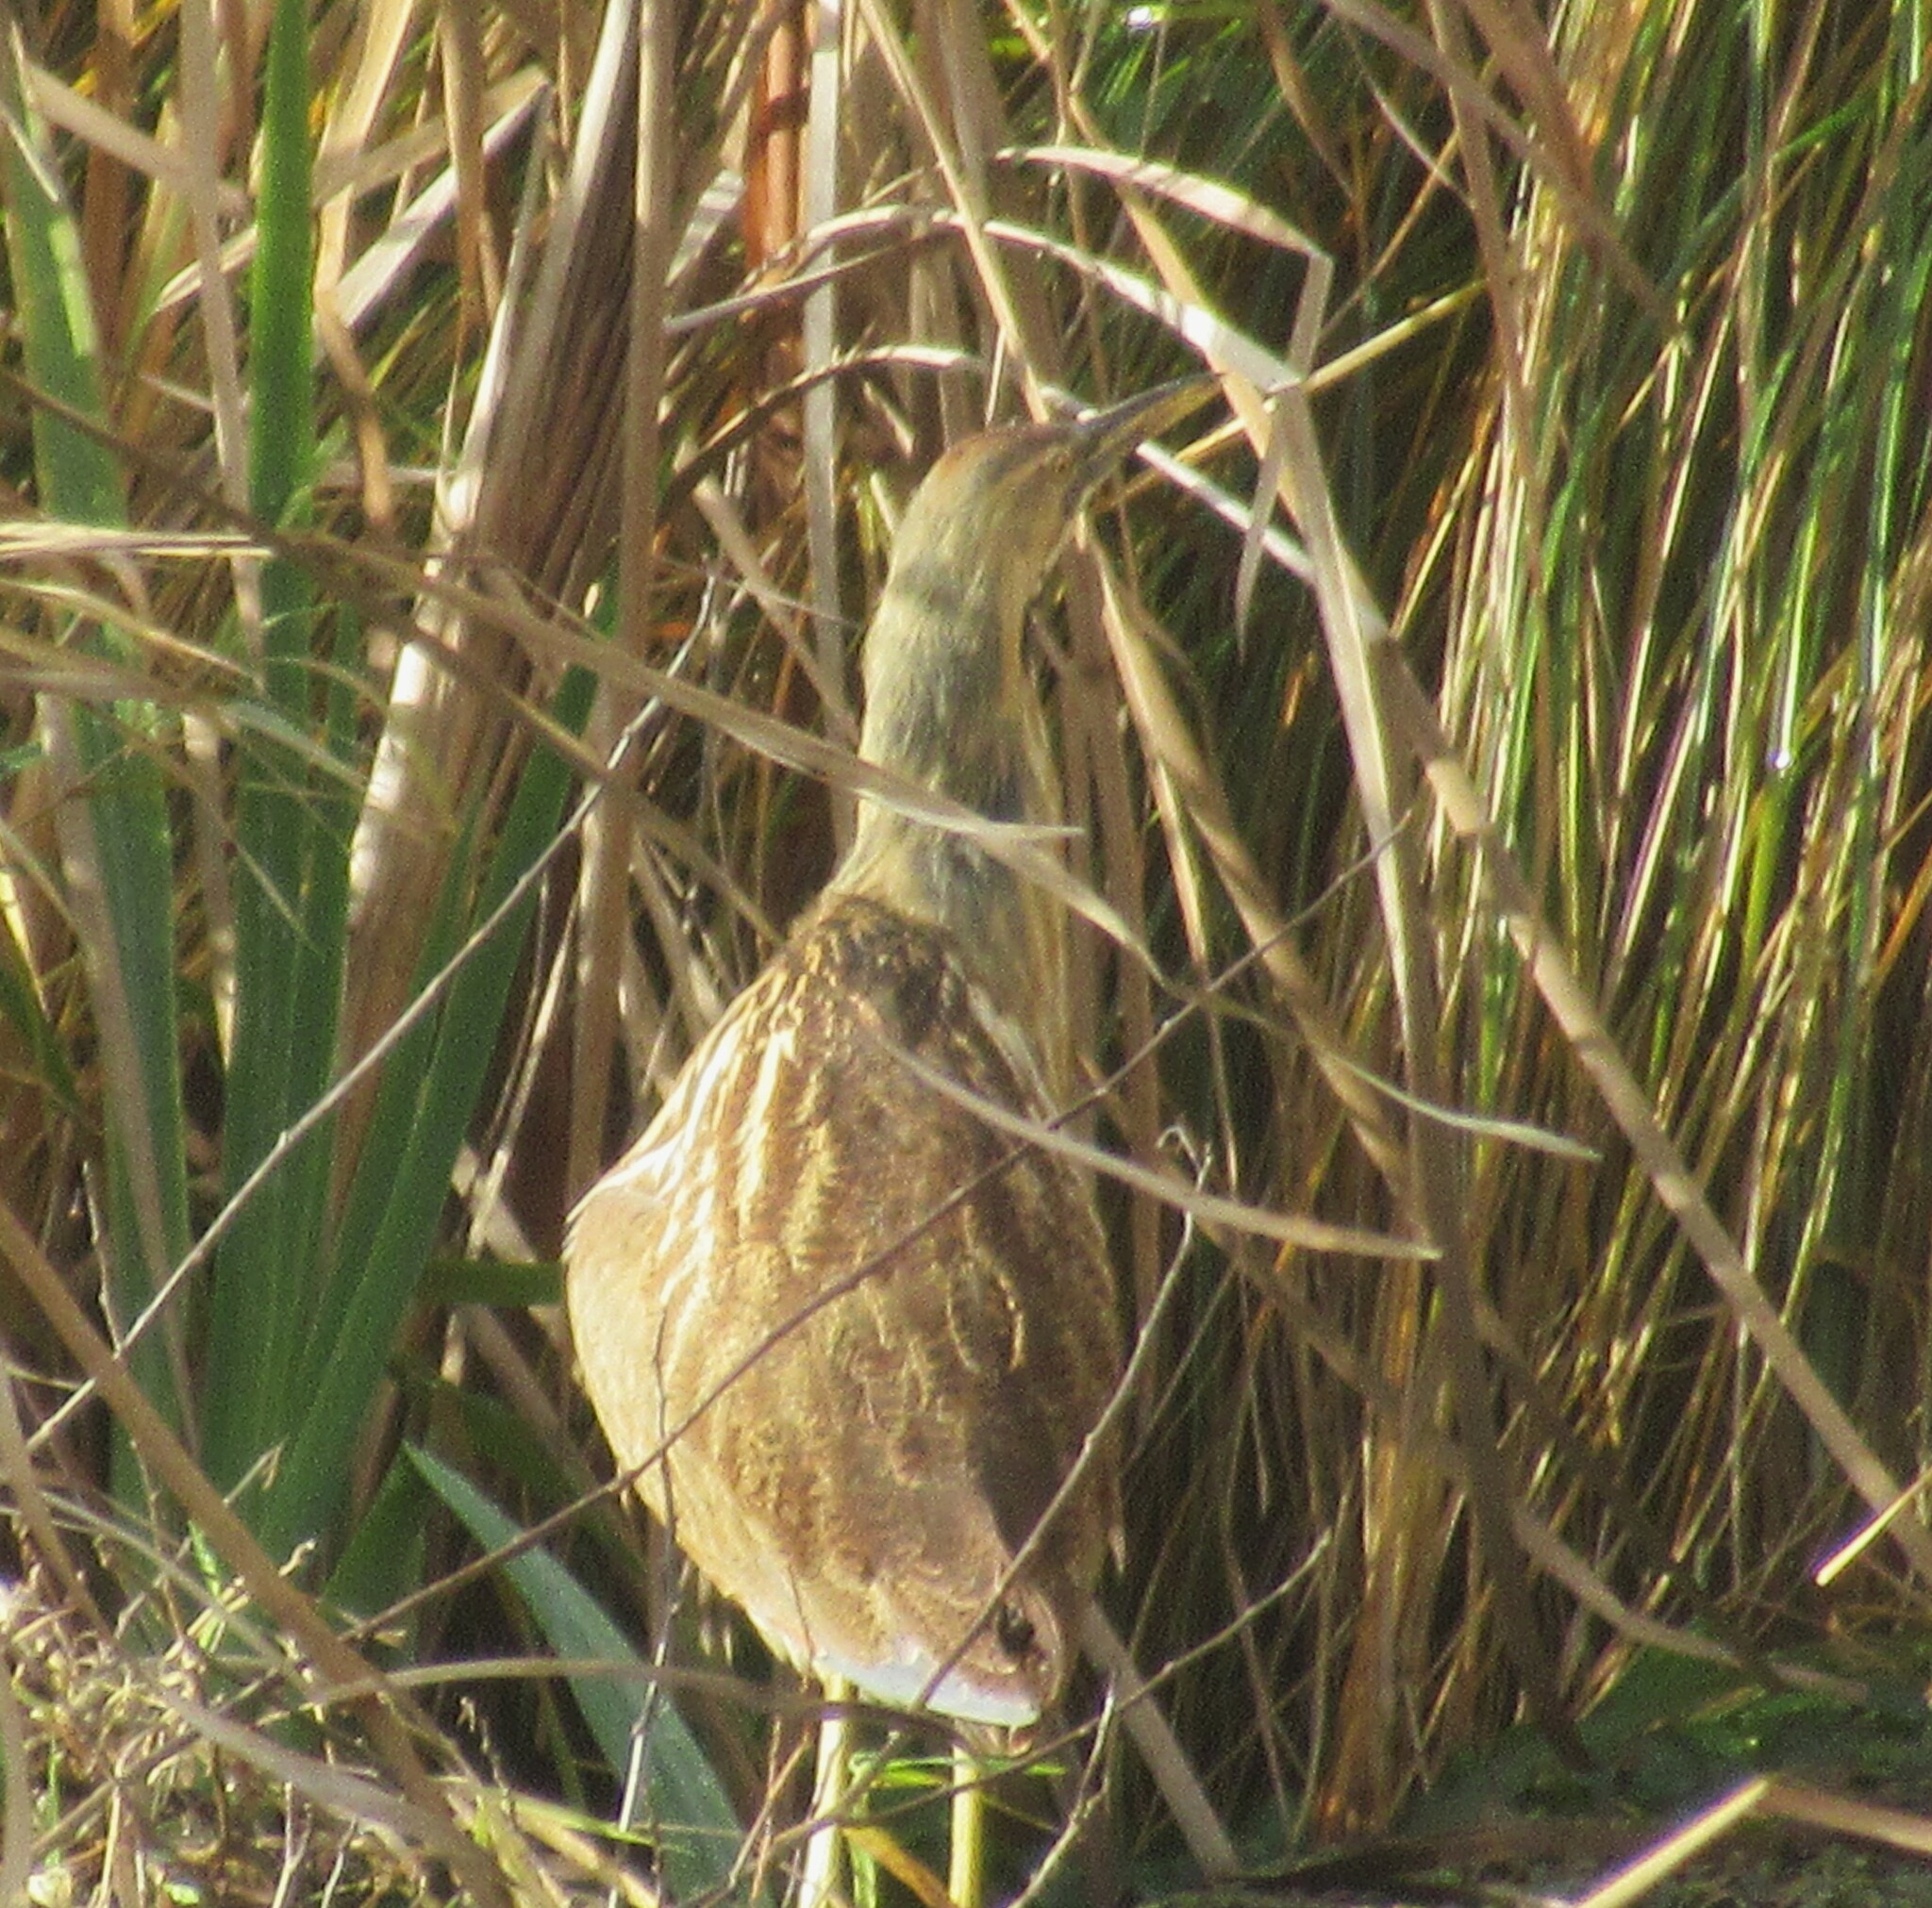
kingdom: Animalia
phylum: Chordata
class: Aves
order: Pelecaniformes
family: Ardeidae
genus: Botaurus
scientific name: Botaurus lentiginosus
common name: American bittern
